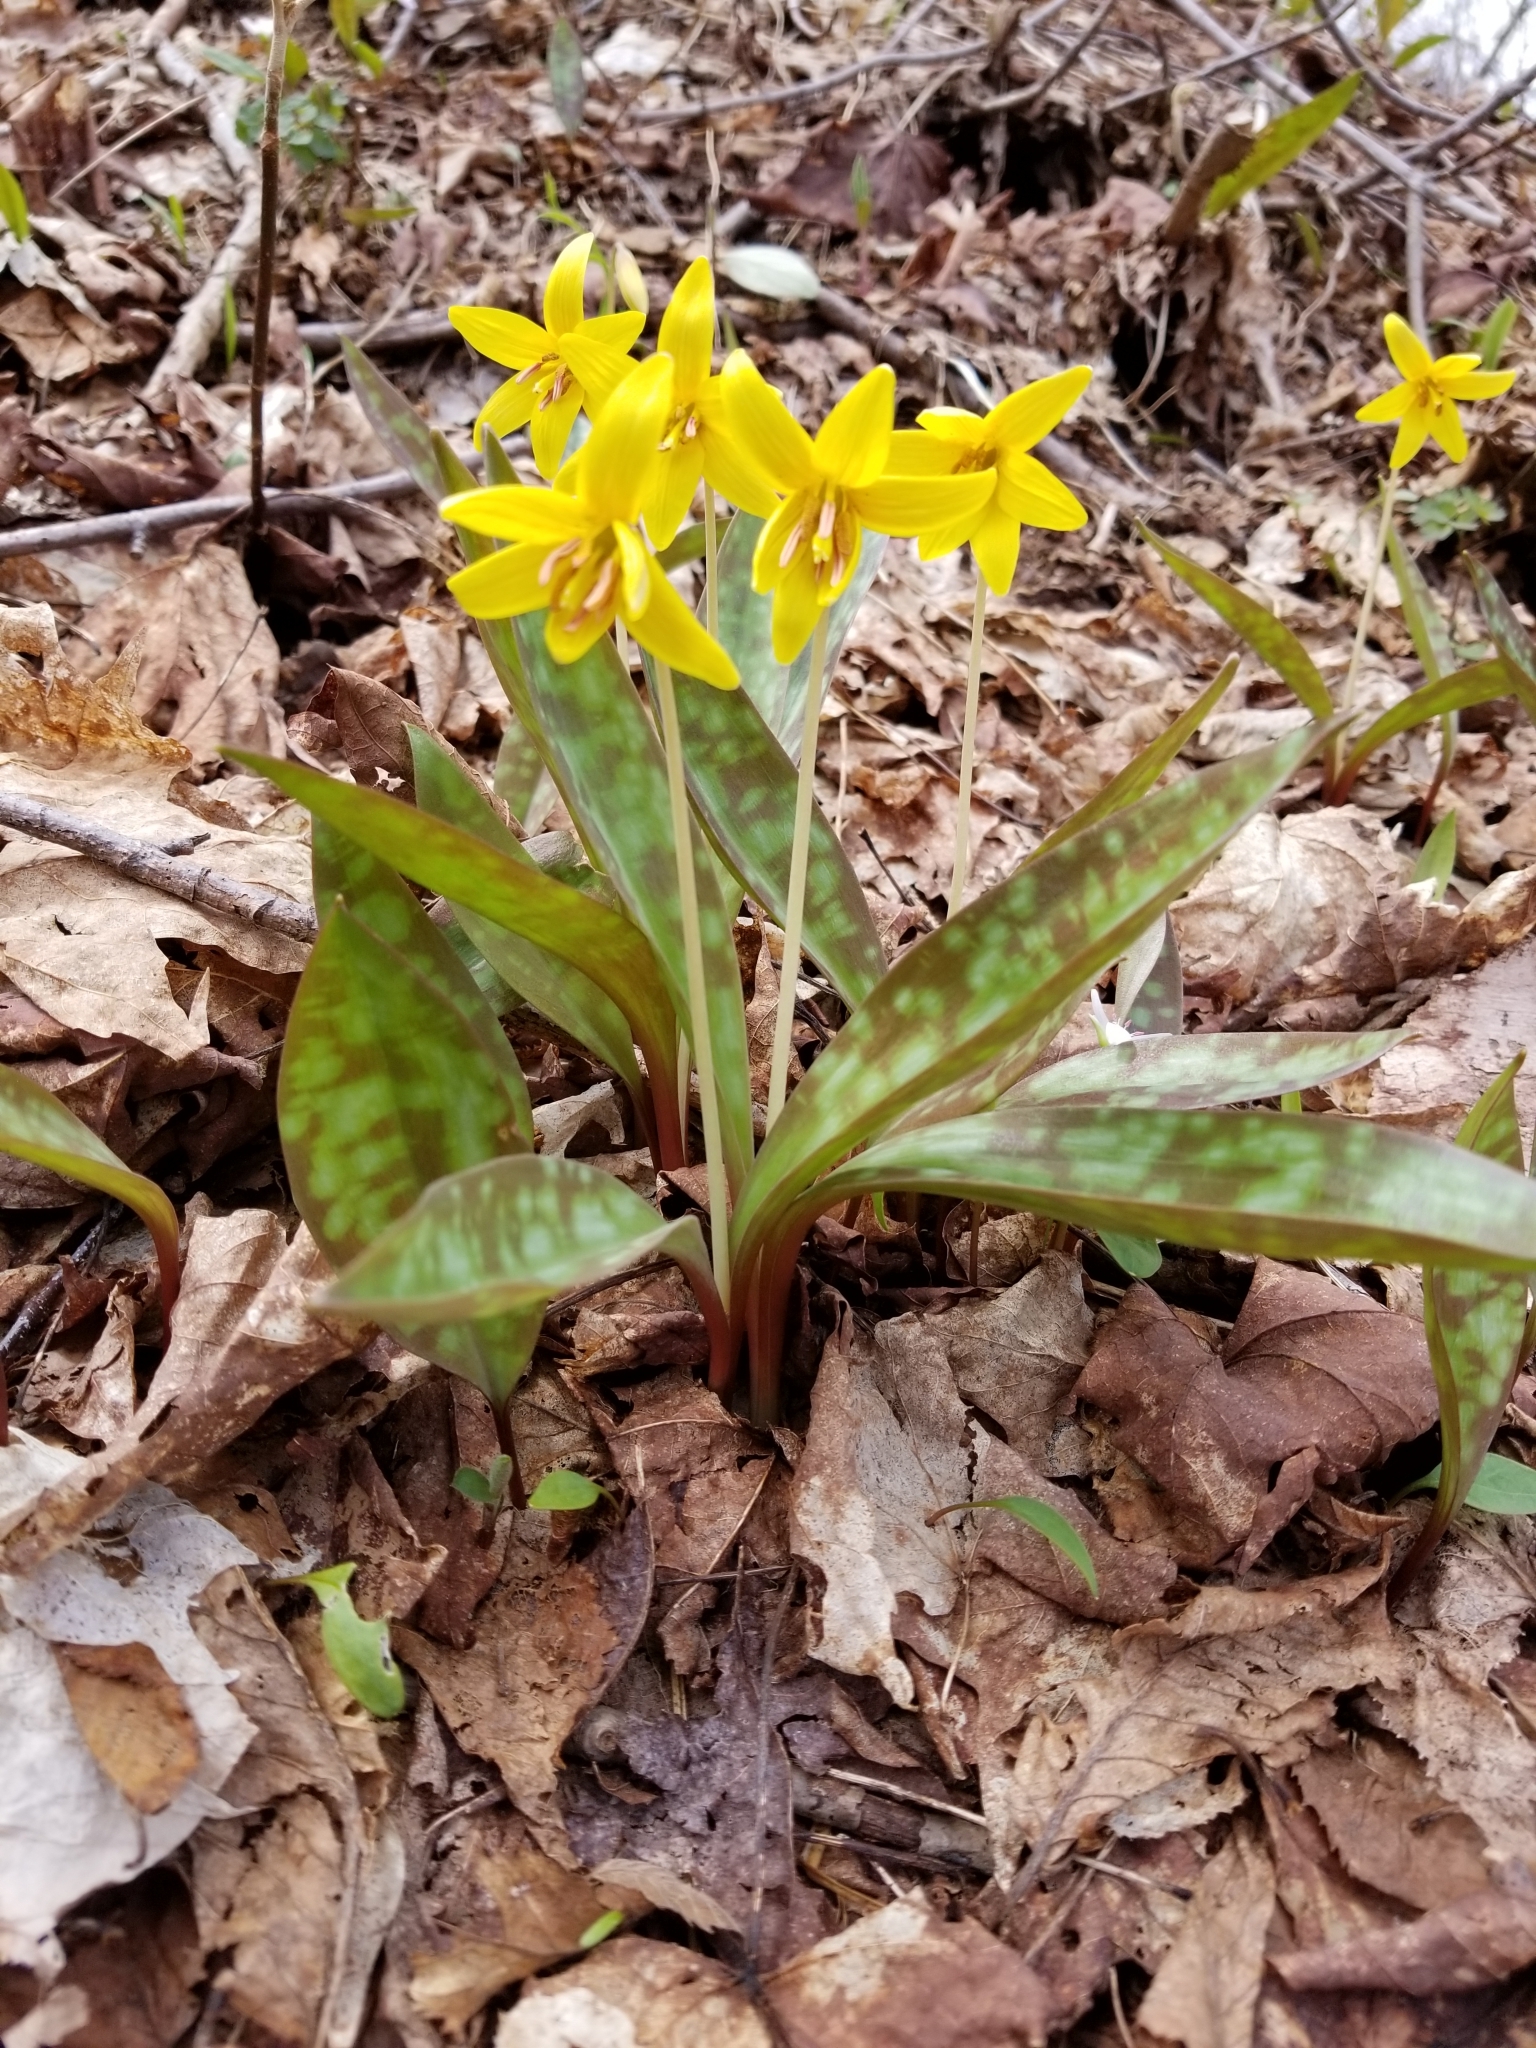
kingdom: Plantae
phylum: Tracheophyta
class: Liliopsida
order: Liliales
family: Liliaceae
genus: Erythronium
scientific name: Erythronium americanum
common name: Yellow adder's-tongue
